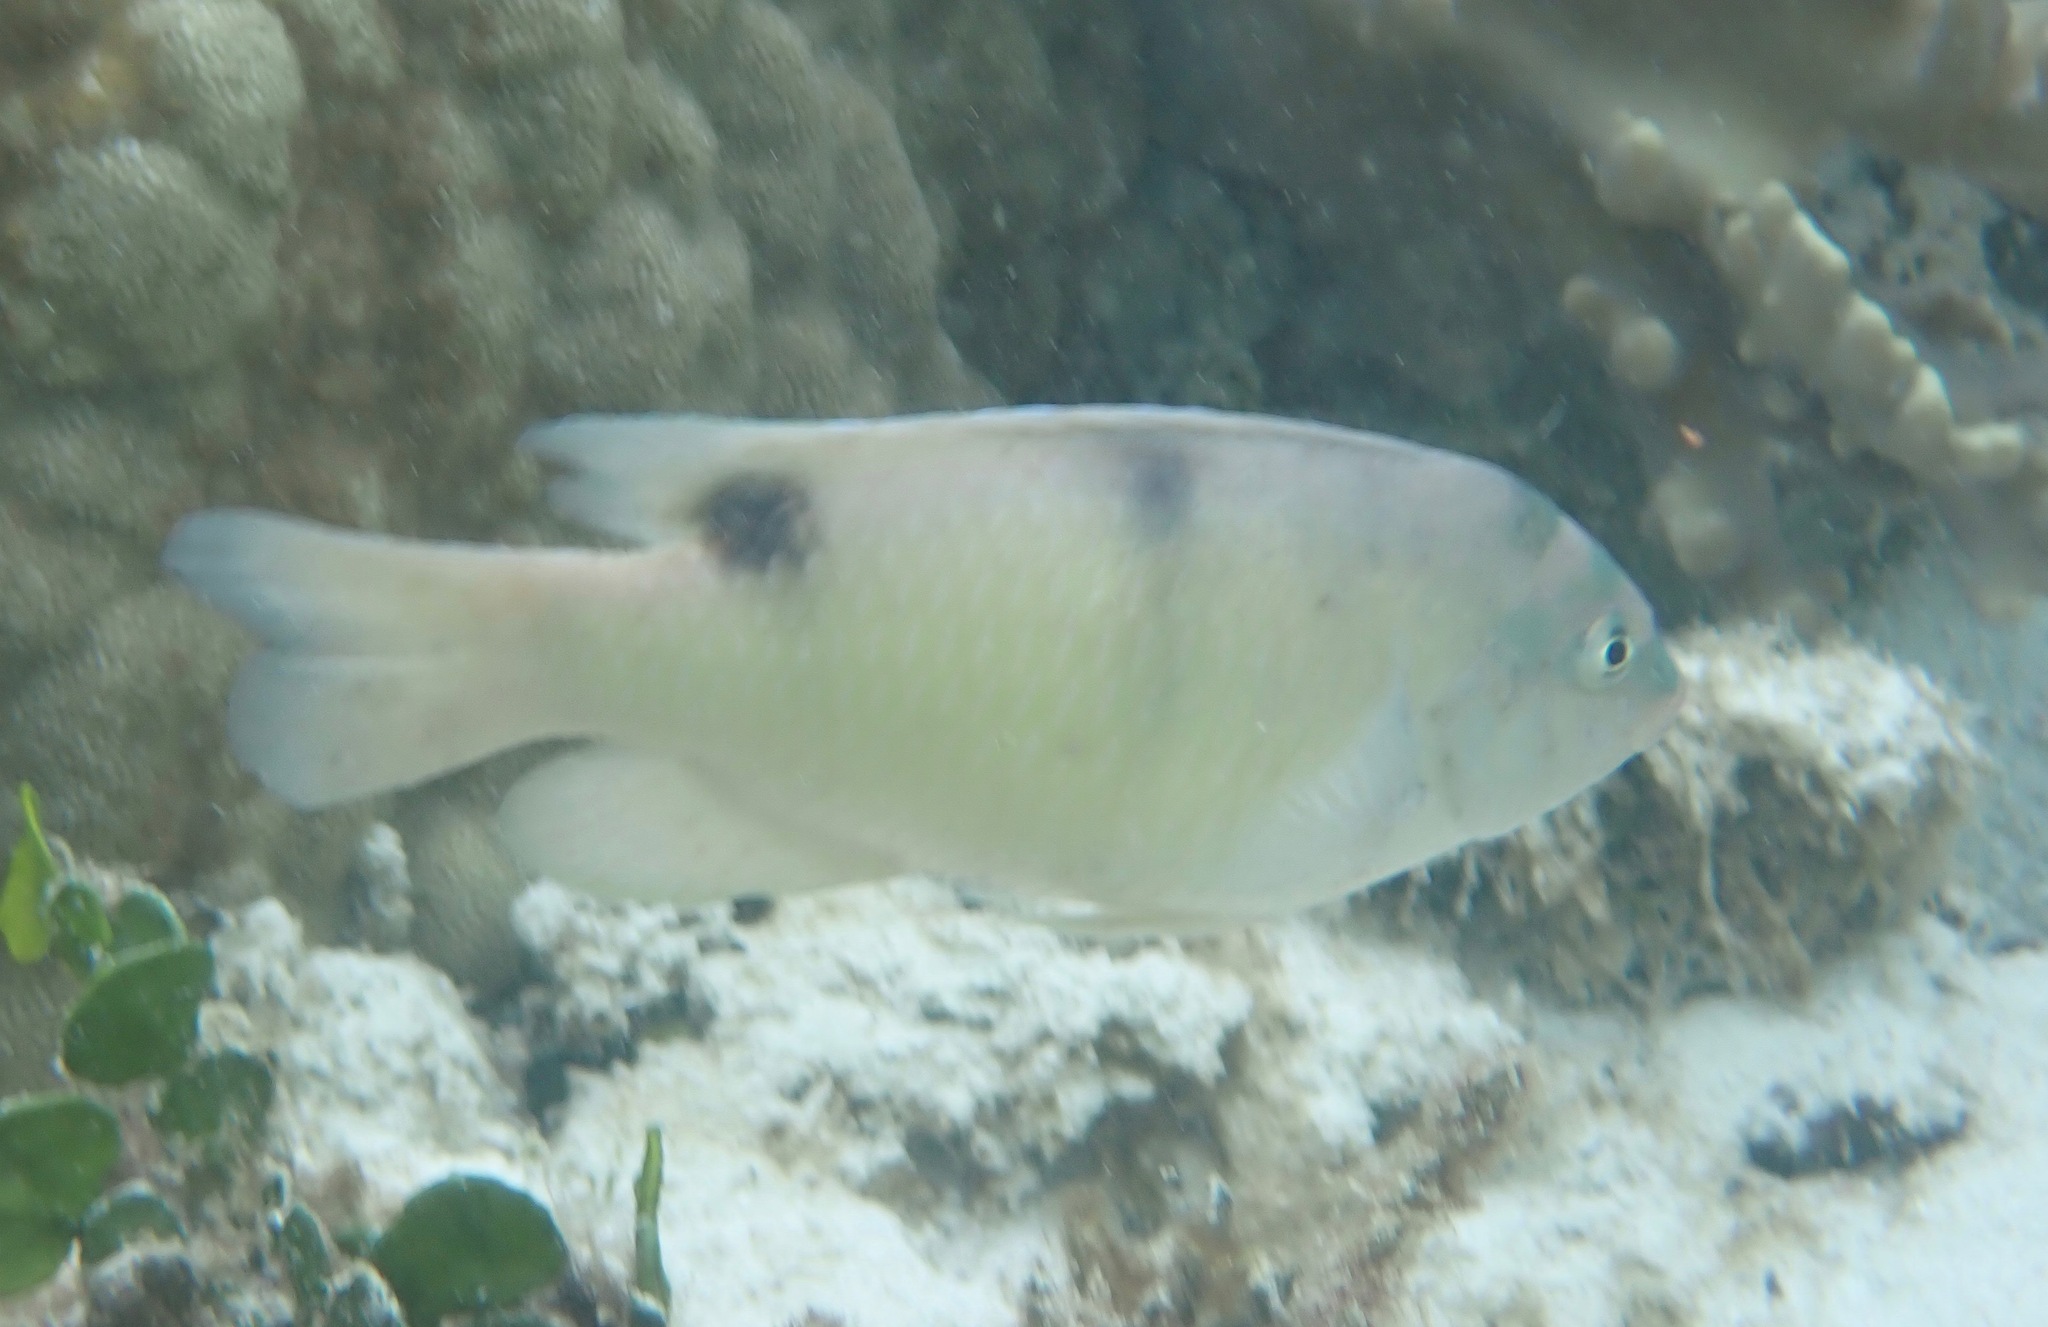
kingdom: Animalia
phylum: Chordata
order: Perciformes
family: Pomacentridae
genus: Dischistodus
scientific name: Dischistodus perspicillatus
